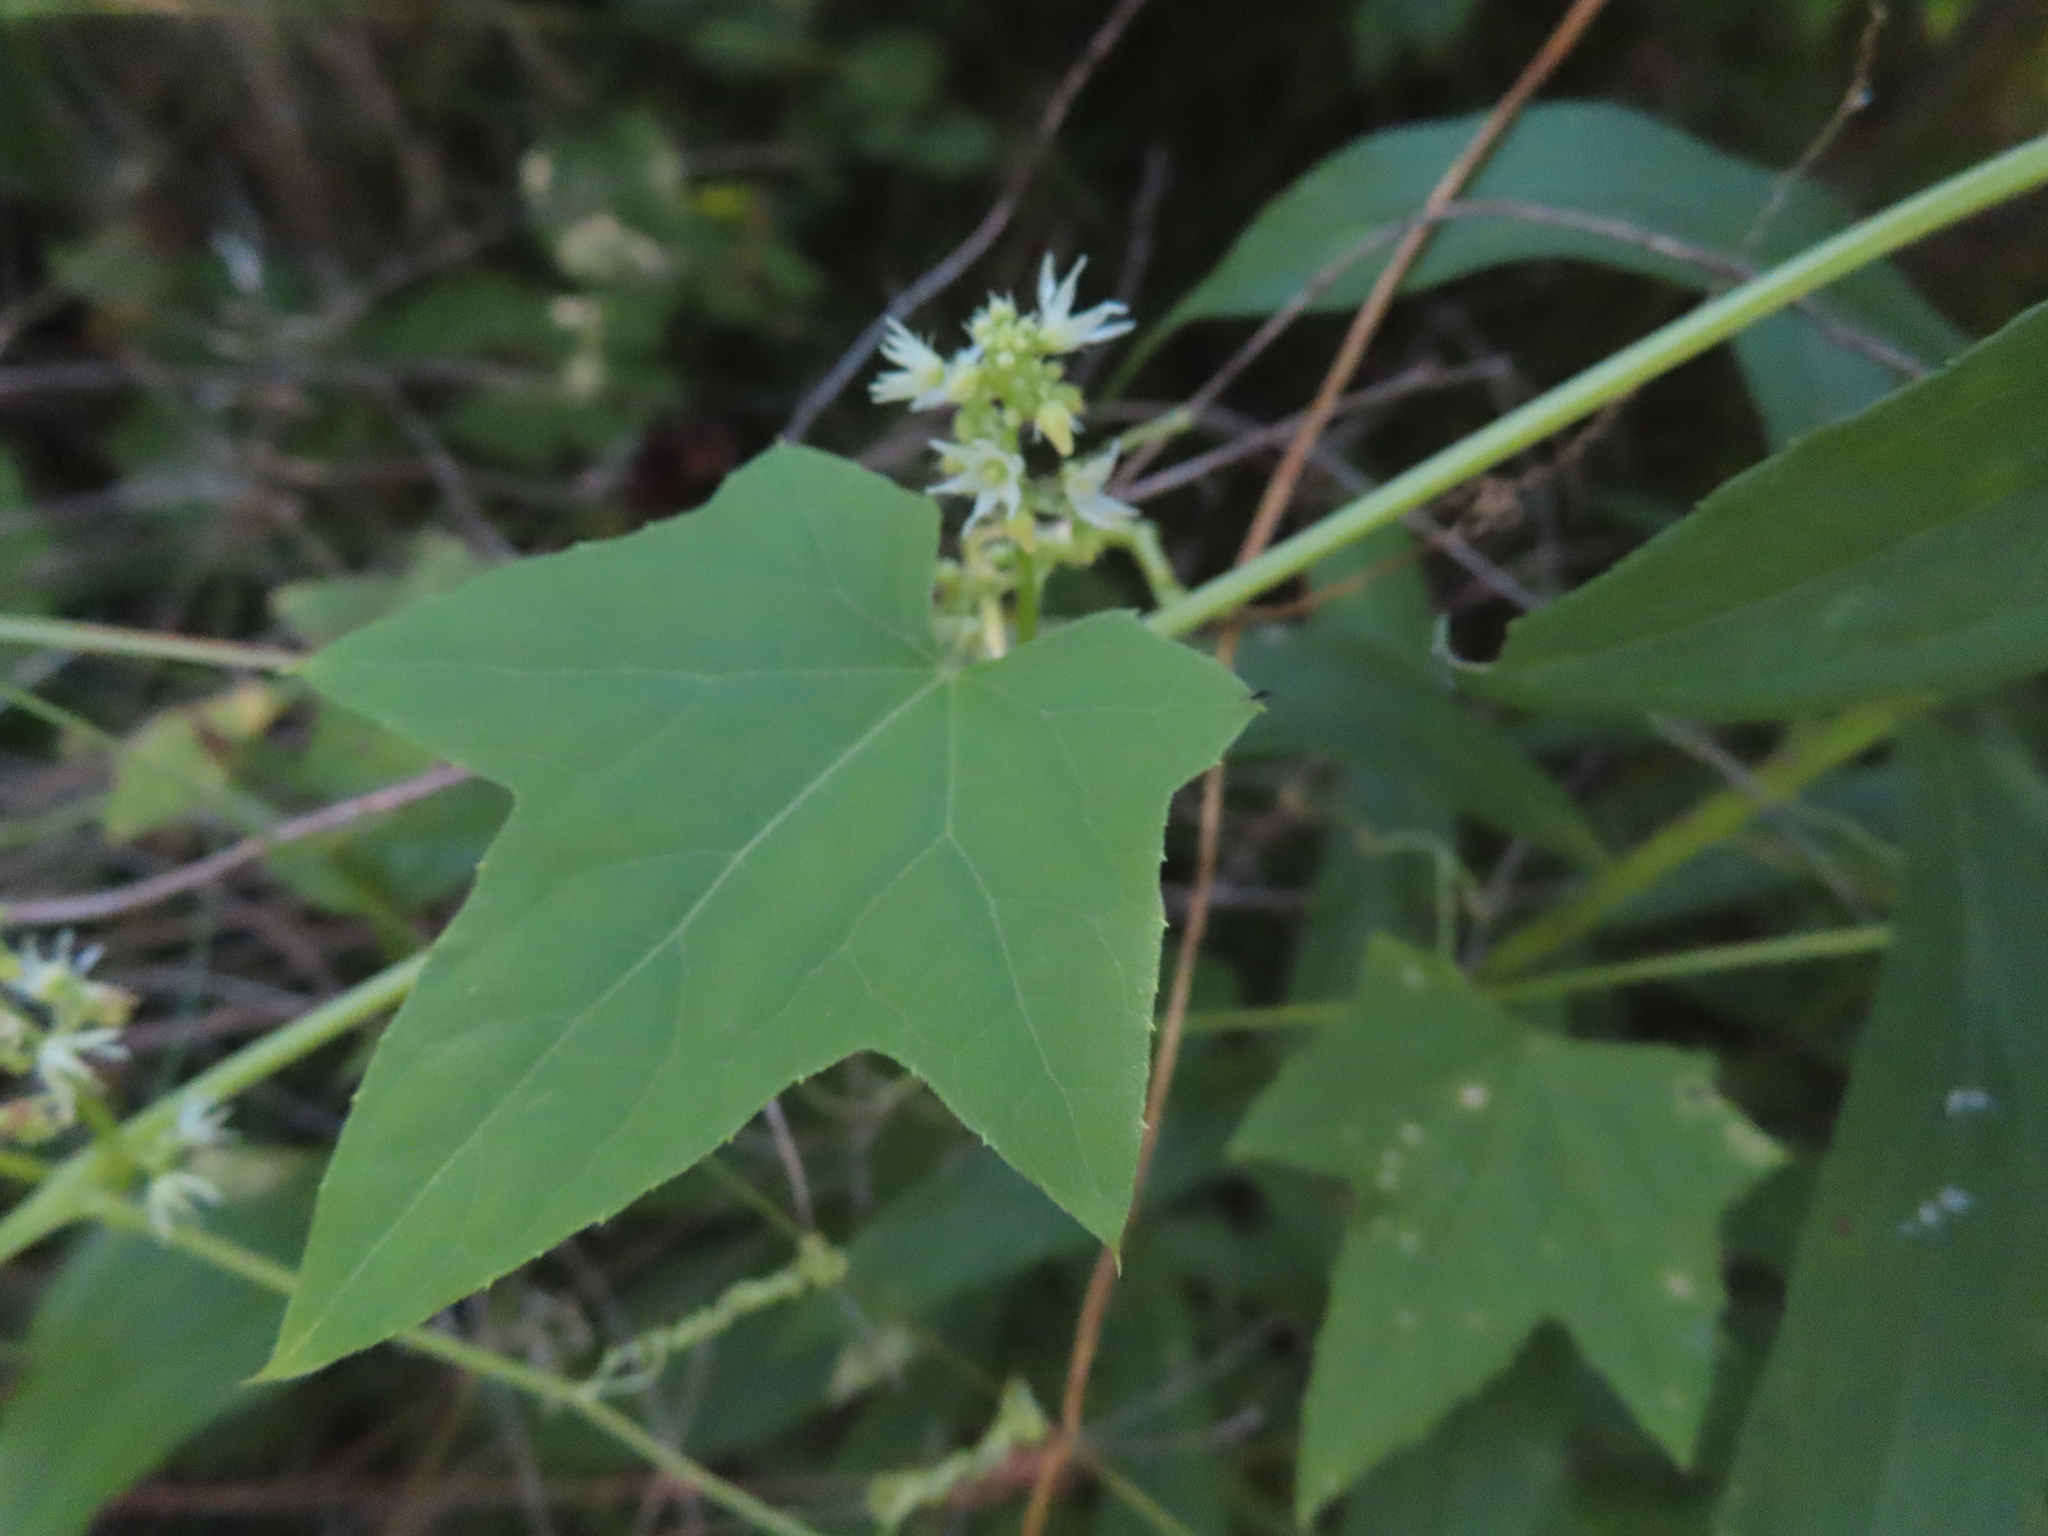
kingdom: Plantae
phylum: Tracheophyta
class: Magnoliopsida
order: Cucurbitales
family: Cucurbitaceae
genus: Echinocystis
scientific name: Echinocystis lobata
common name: Wild cucumber
